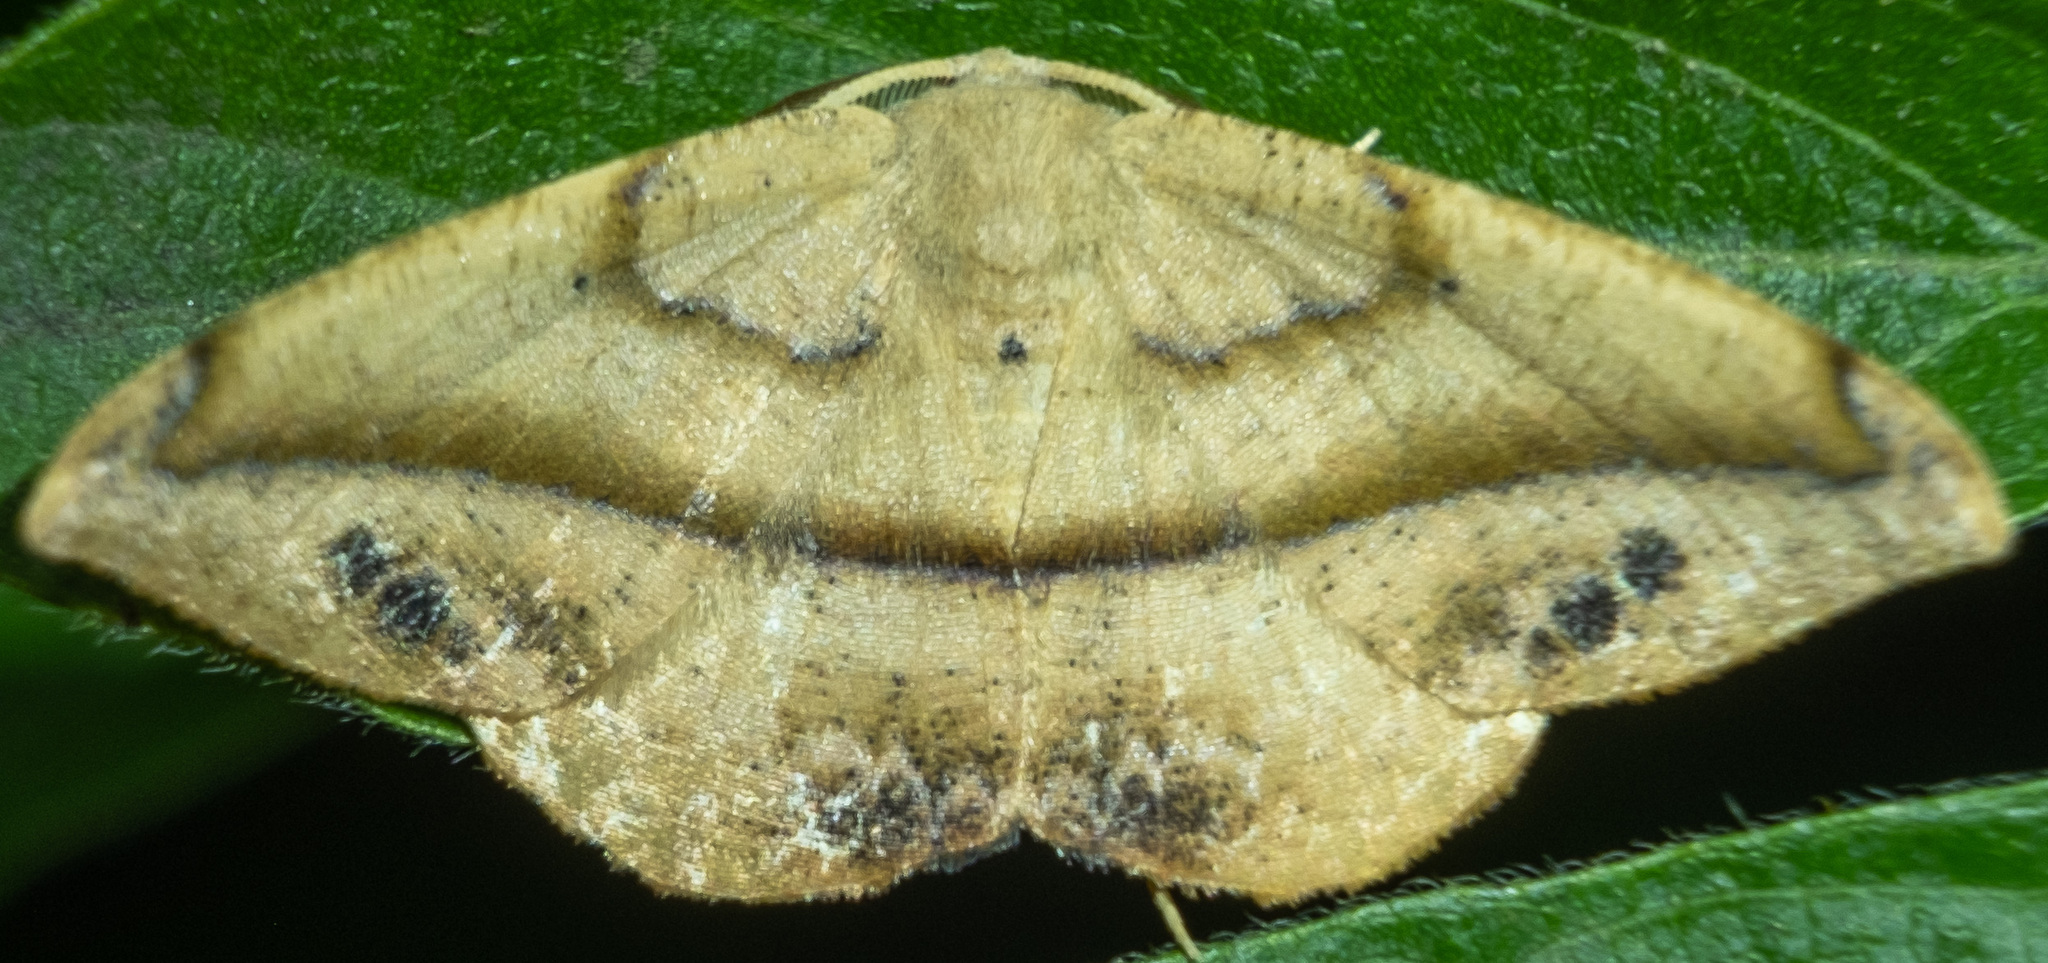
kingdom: Animalia
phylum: Arthropoda
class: Insecta
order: Lepidoptera
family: Geometridae
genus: Patalene
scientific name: Patalene olyzonaria
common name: Juniper geometer moth
